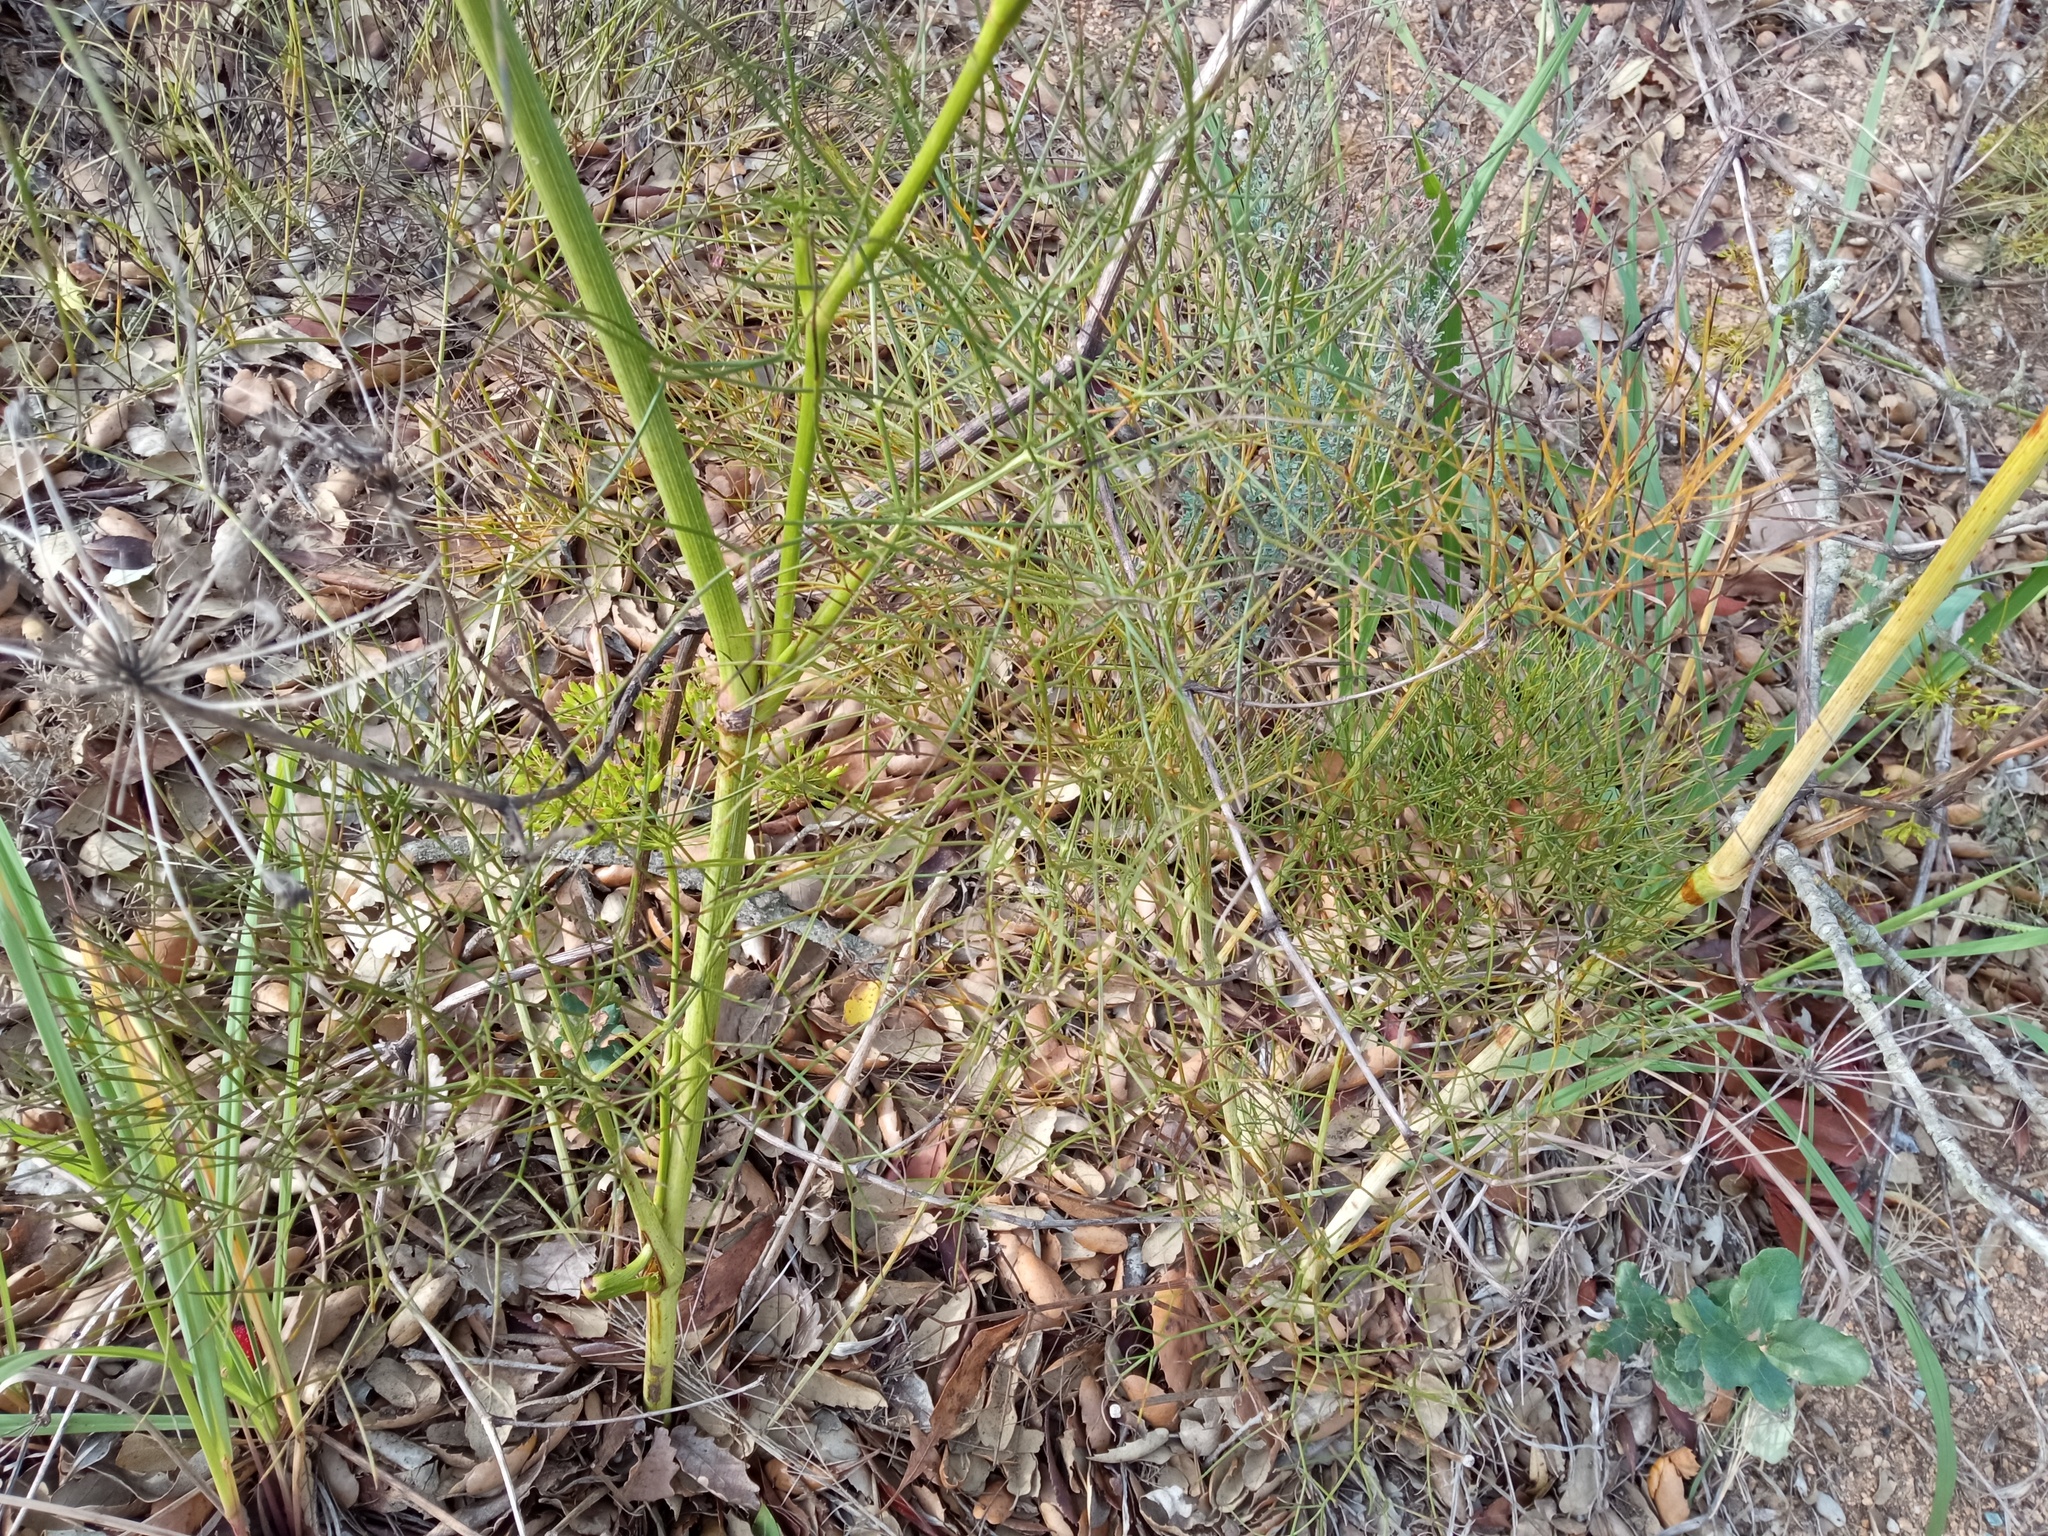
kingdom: Plantae
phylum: Tracheophyta
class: Magnoliopsida
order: Apiales
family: Apiaceae
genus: Peucedanum
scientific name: Peucedanum officinale
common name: Sulphurweed
